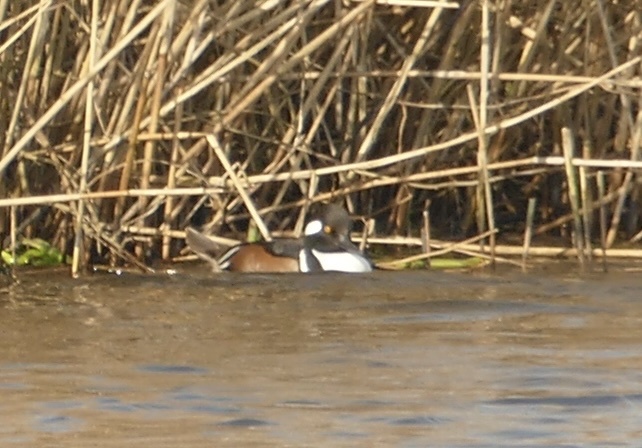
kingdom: Animalia
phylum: Chordata
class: Aves
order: Anseriformes
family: Anatidae
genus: Lophodytes
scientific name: Lophodytes cucullatus
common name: Hooded merganser
